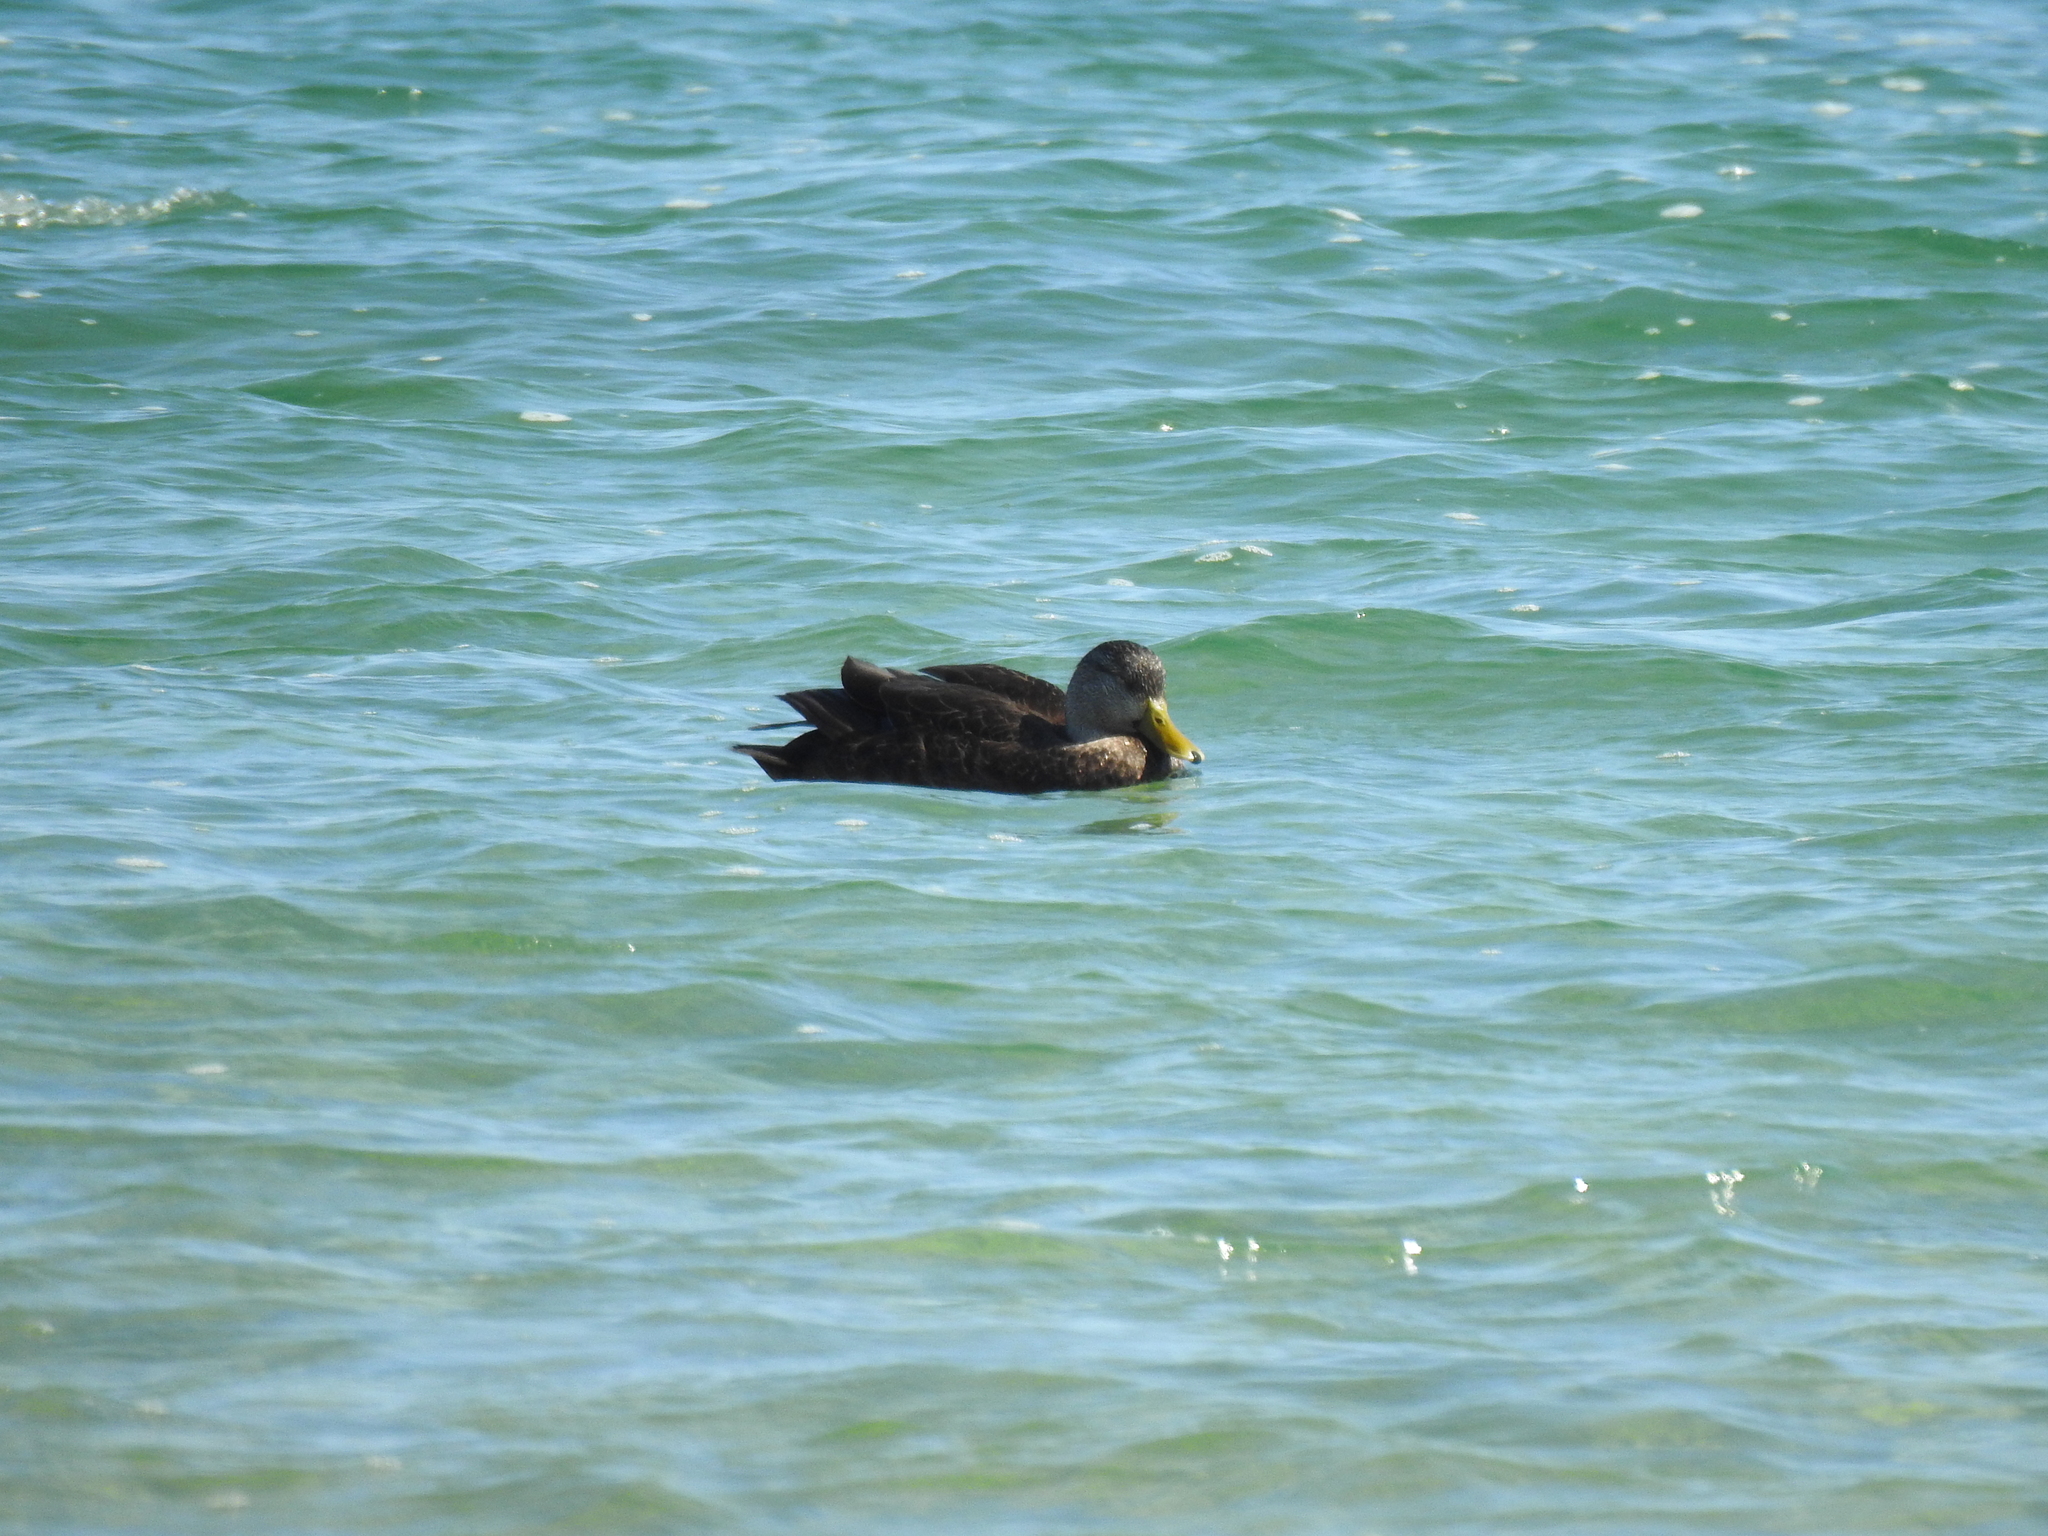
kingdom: Animalia
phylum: Chordata
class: Aves
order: Anseriformes
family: Anatidae
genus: Anas
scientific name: Anas rubripes
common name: American black duck
